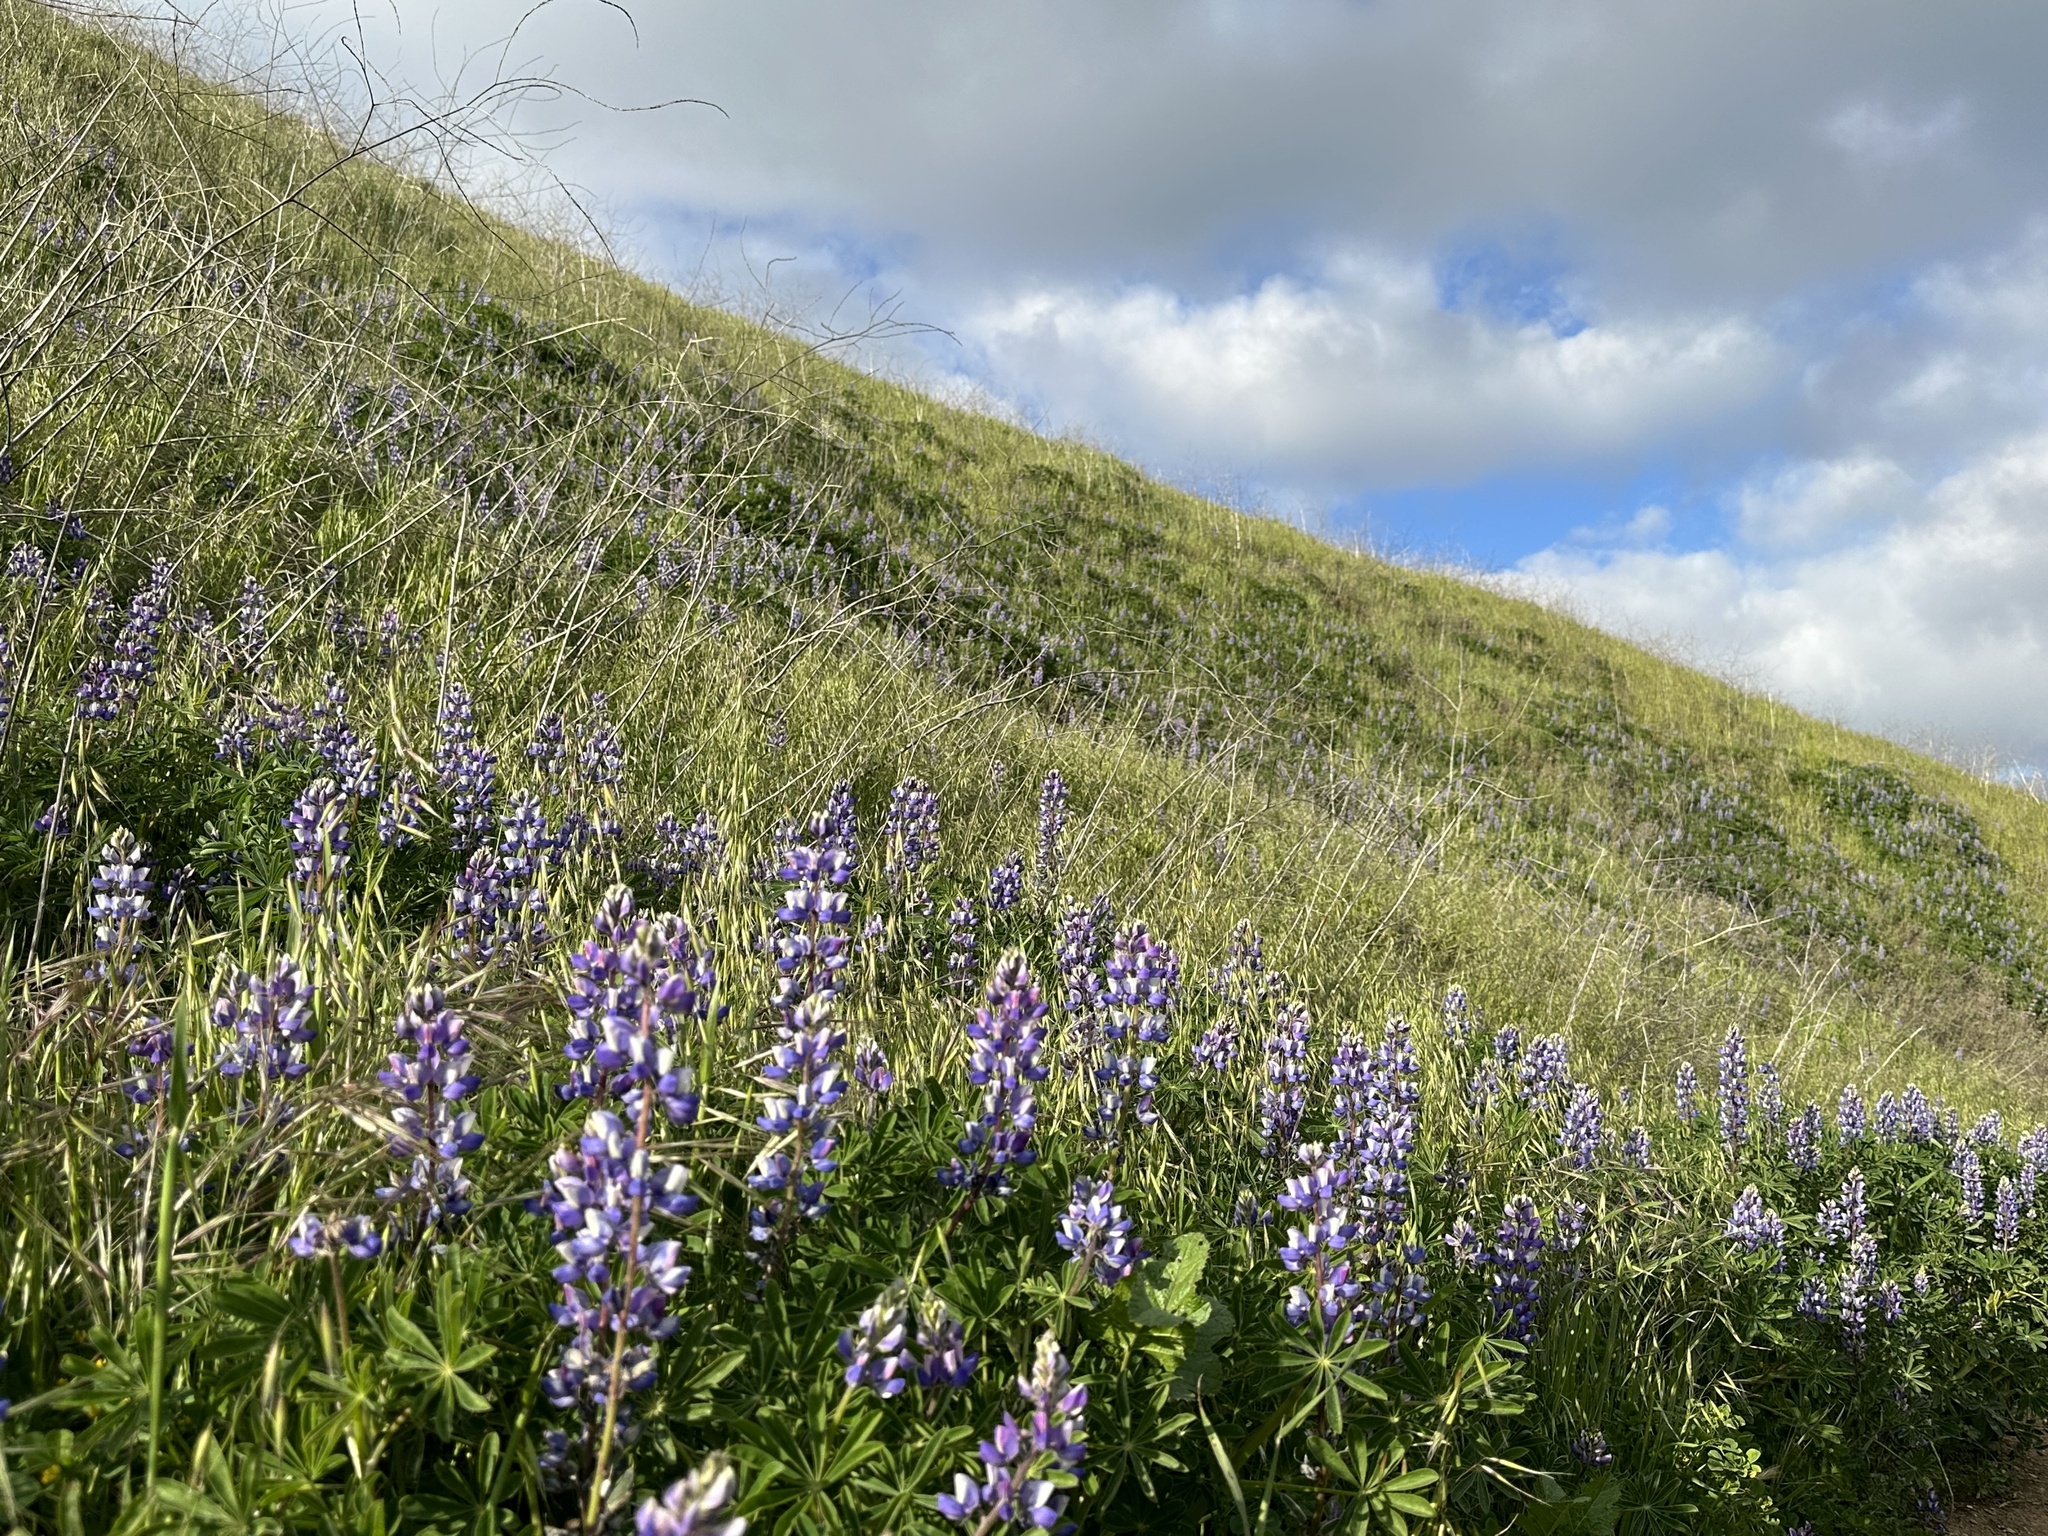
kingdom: Plantae
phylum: Tracheophyta
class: Magnoliopsida
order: Fabales
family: Fabaceae
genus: Lupinus
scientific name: Lupinus succulentus
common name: Arroyo lupine
